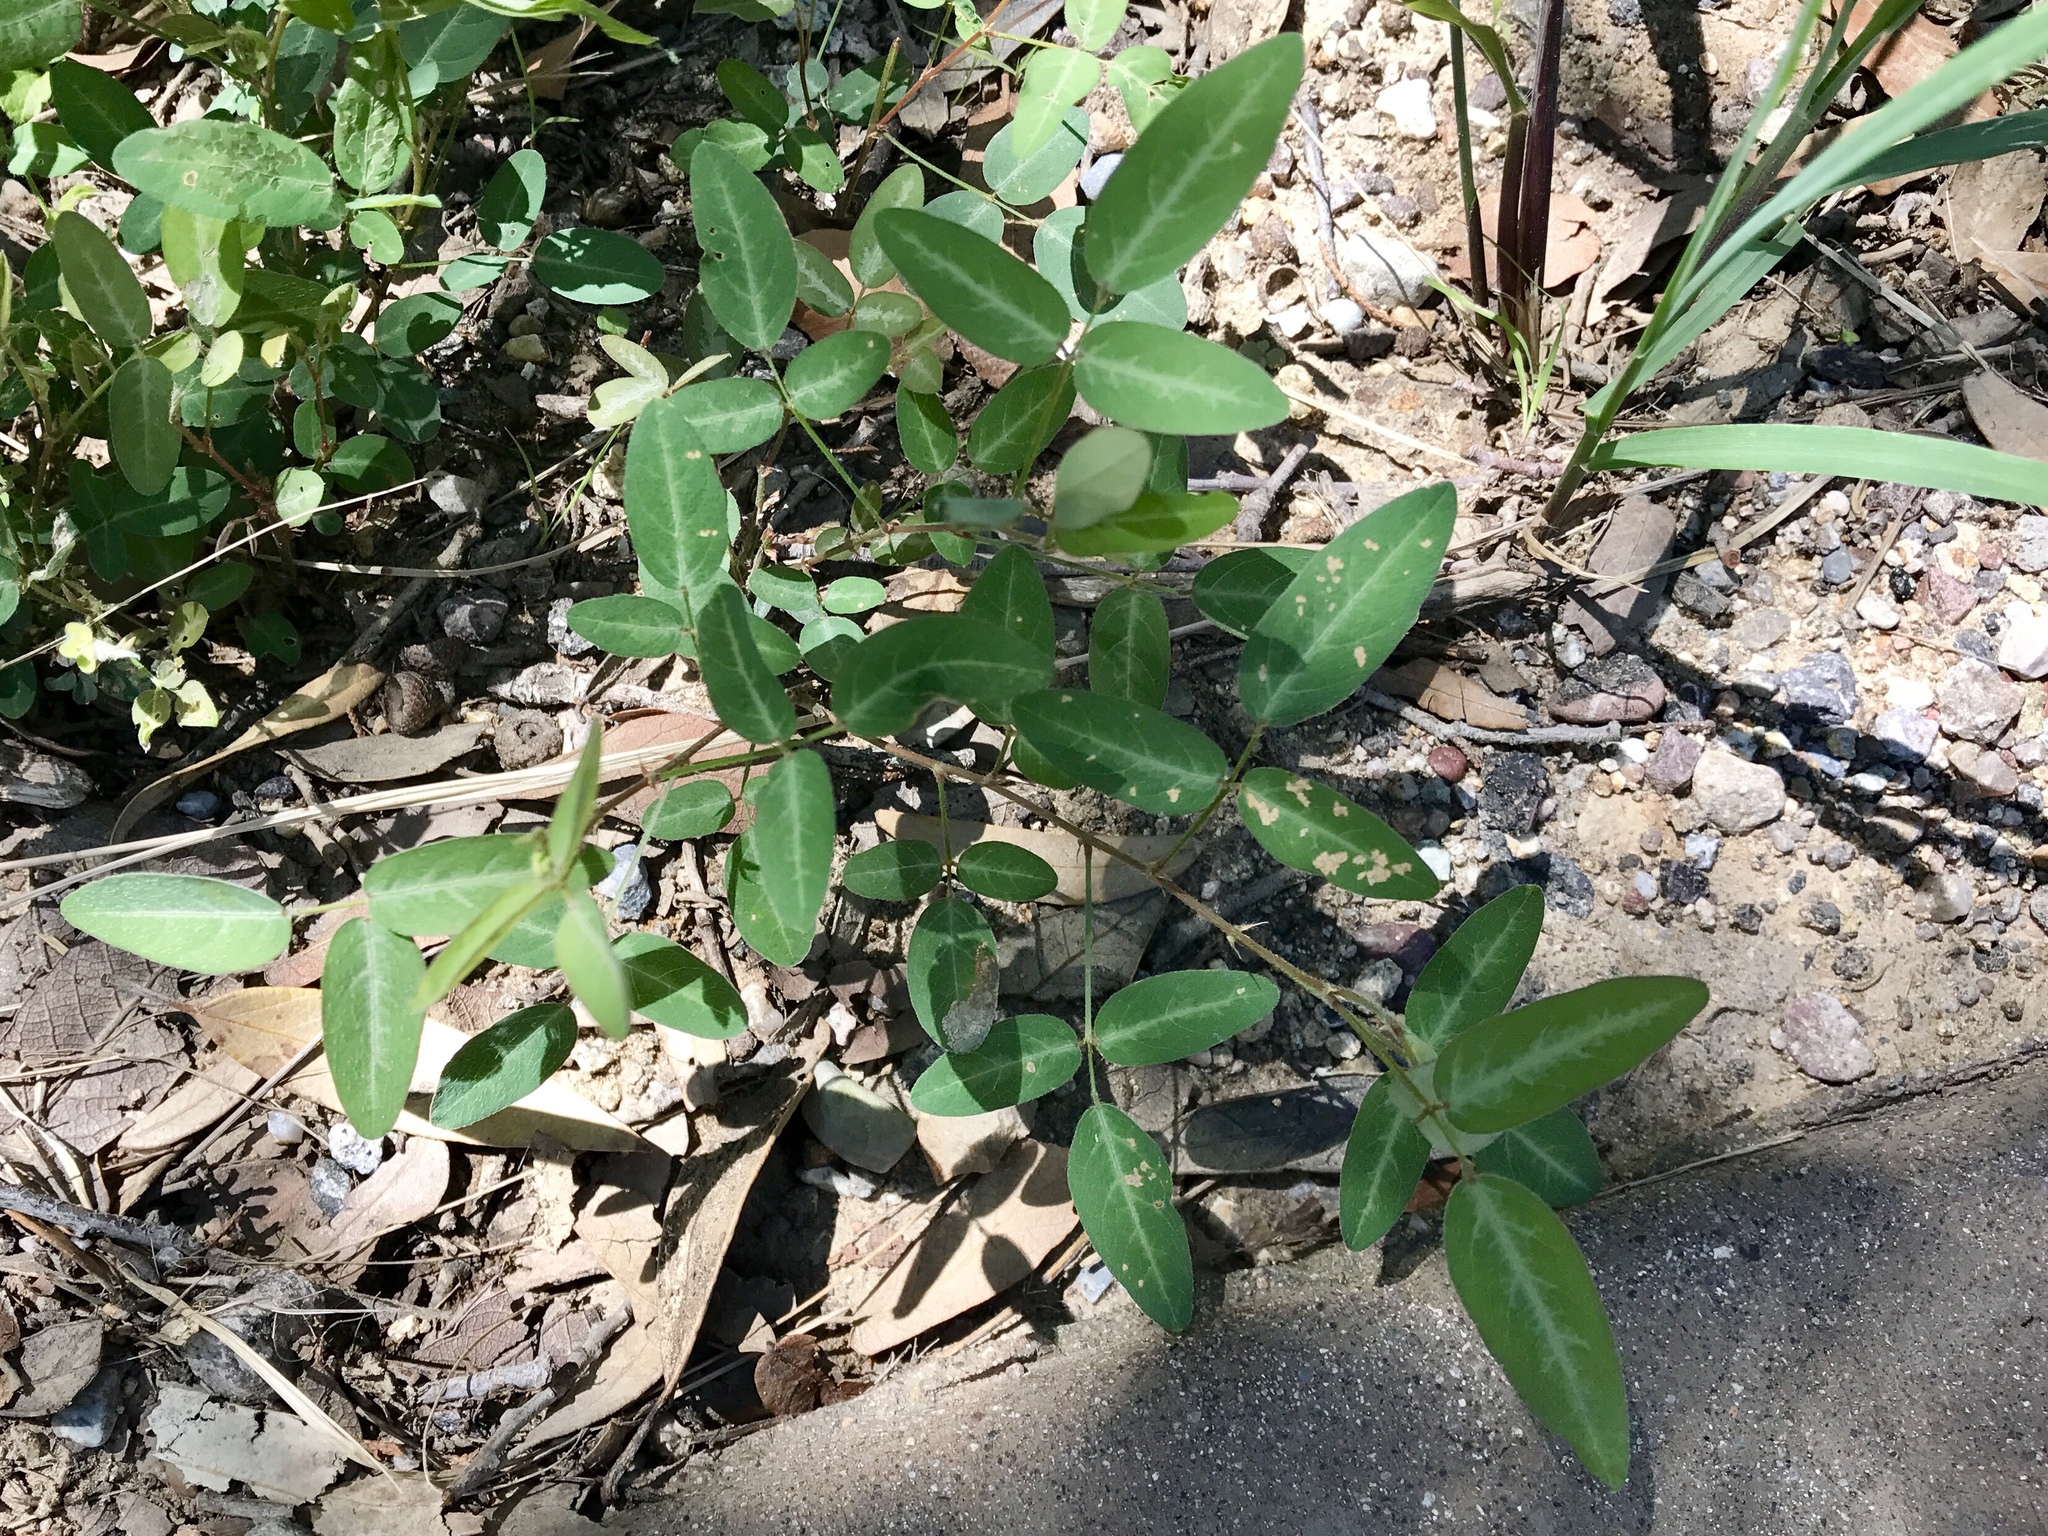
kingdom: Plantae
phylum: Tracheophyta
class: Magnoliopsida
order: Fabales
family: Fabaceae
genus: Desmodium
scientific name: Desmodium batocaulon
